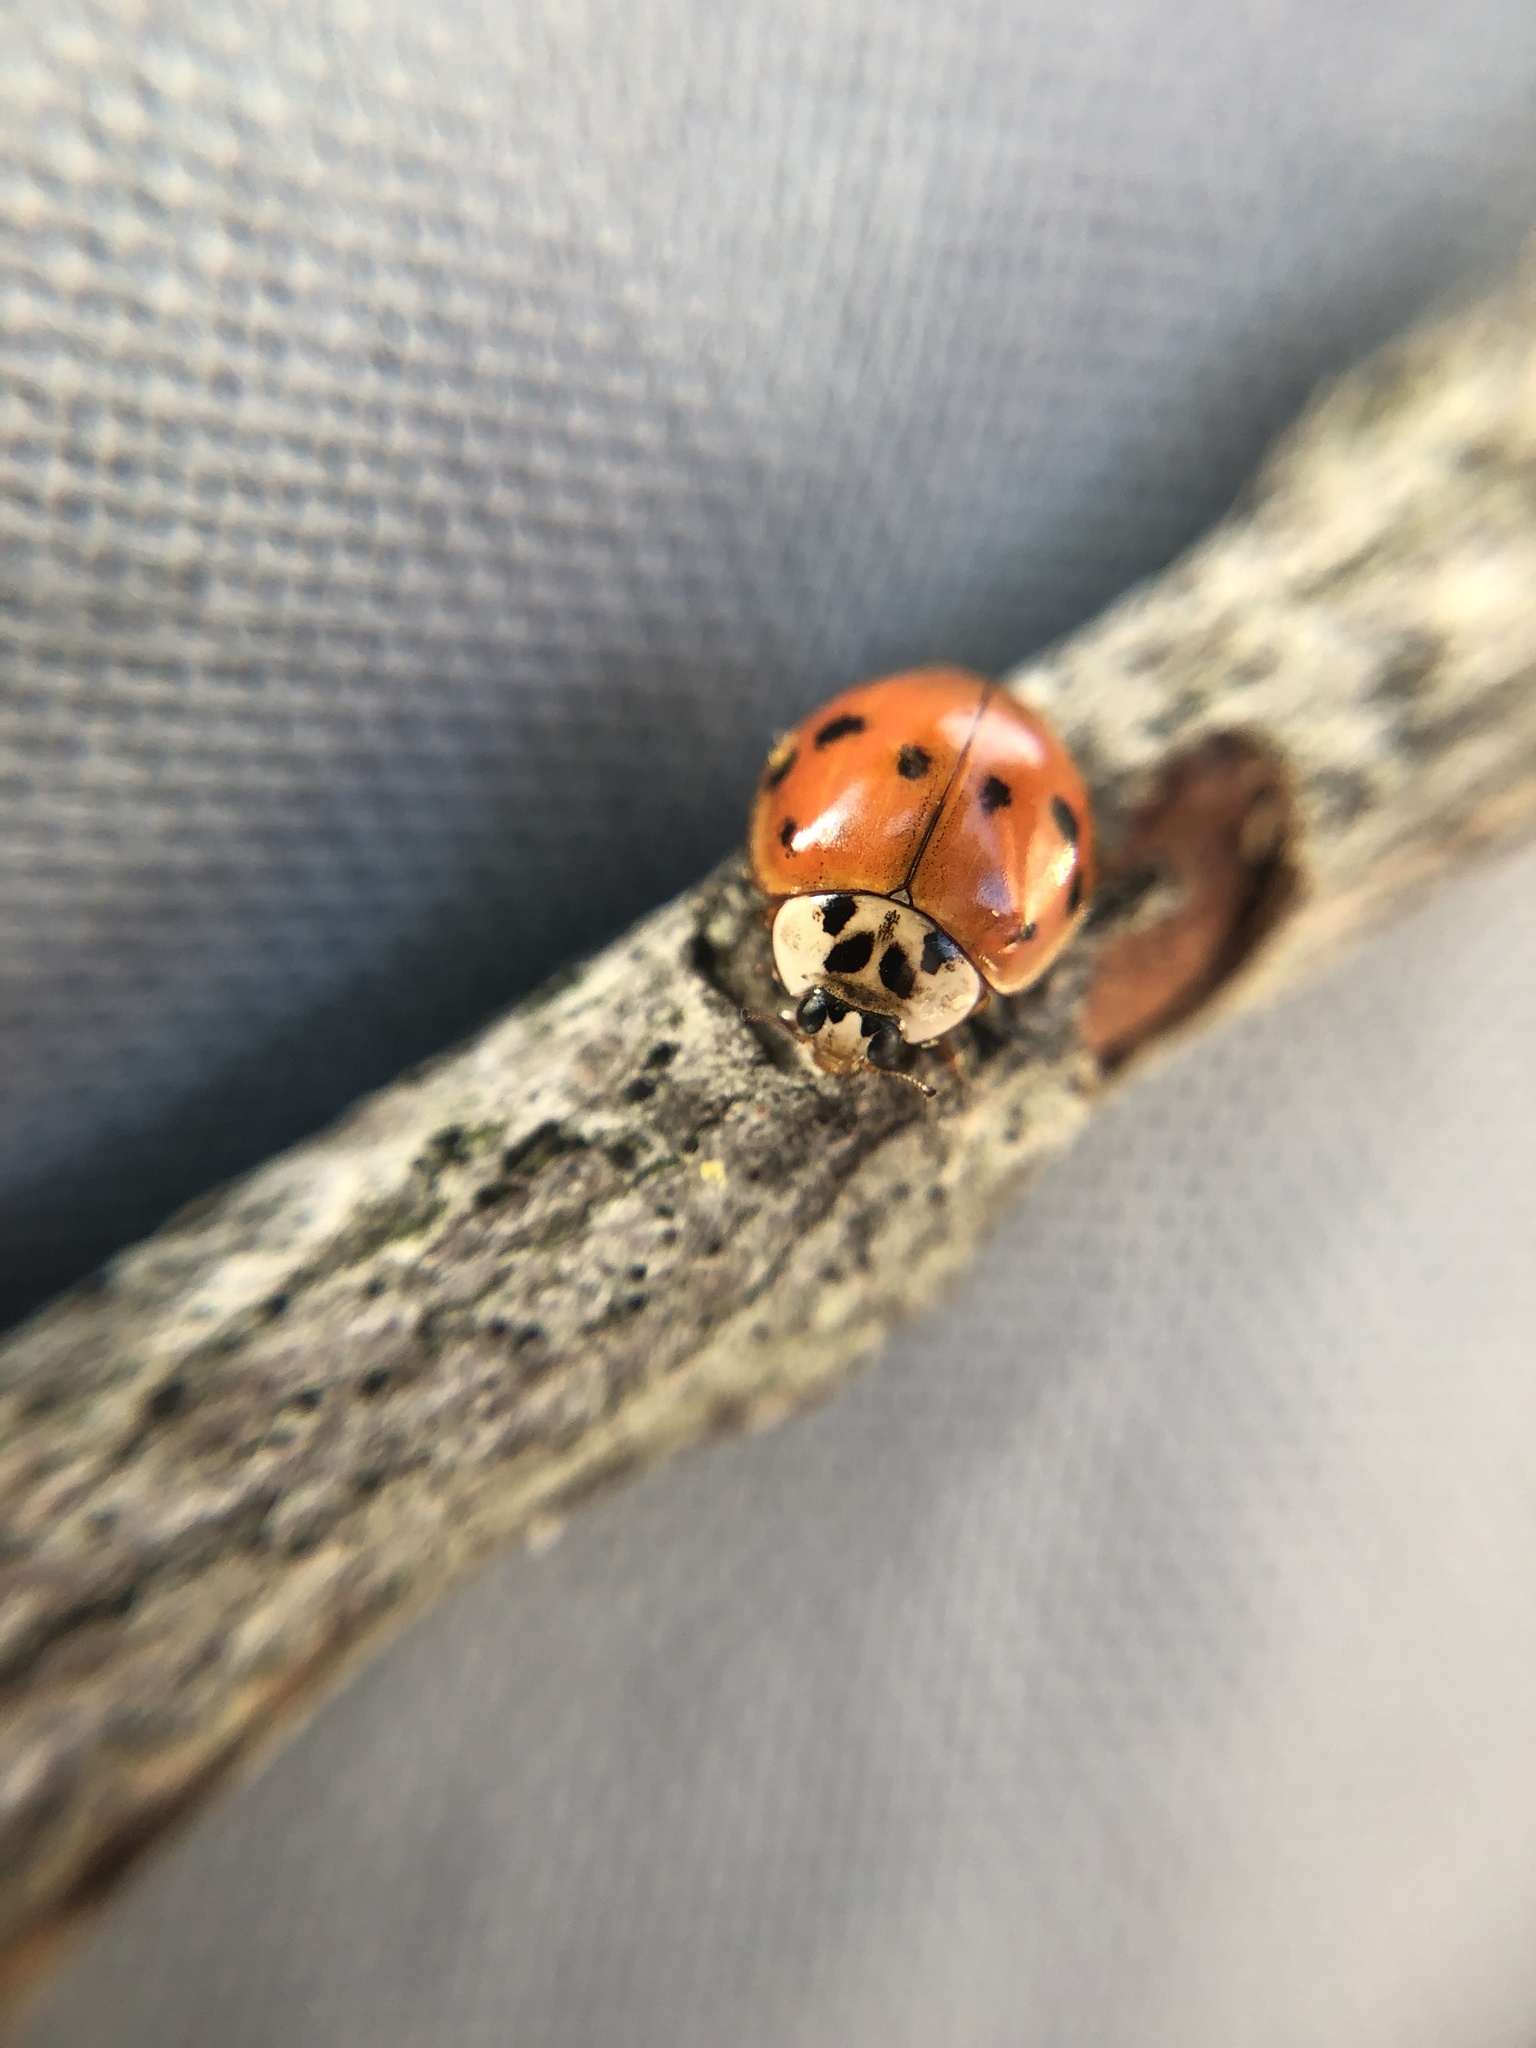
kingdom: Animalia
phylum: Arthropoda
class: Insecta
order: Coleoptera
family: Coccinellidae
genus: Harmonia
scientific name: Harmonia axyridis
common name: Harlequin ladybird
